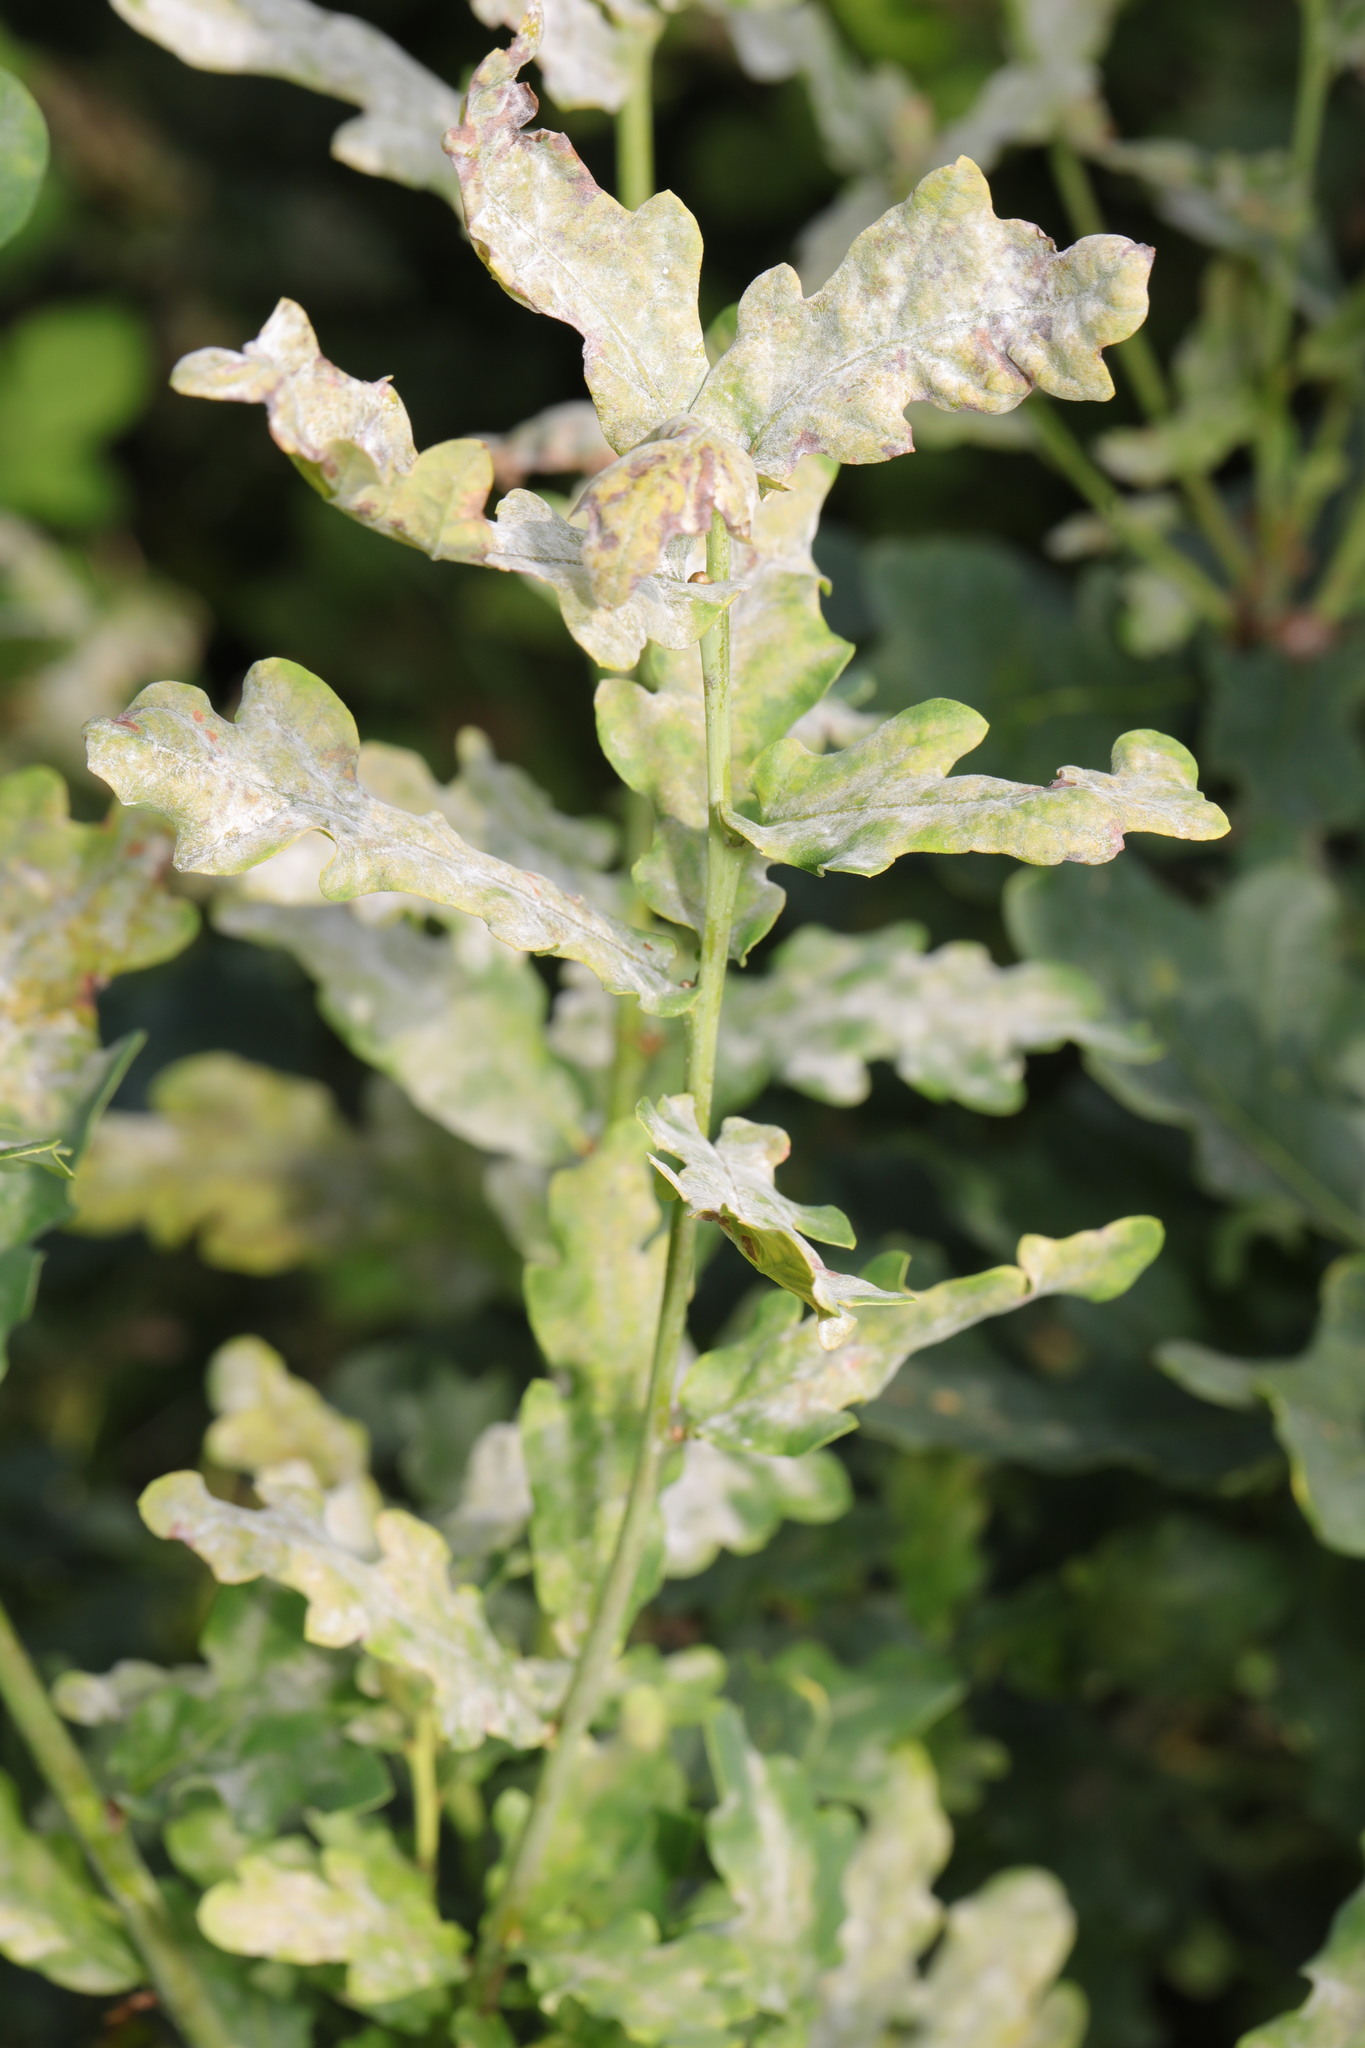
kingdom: Fungi
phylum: Ascomycota
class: Leotiomycetes
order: Helotiales
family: Erysiphaceae
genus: Erysiphe
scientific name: Erysiphe alphitoides
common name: Oak mildew
